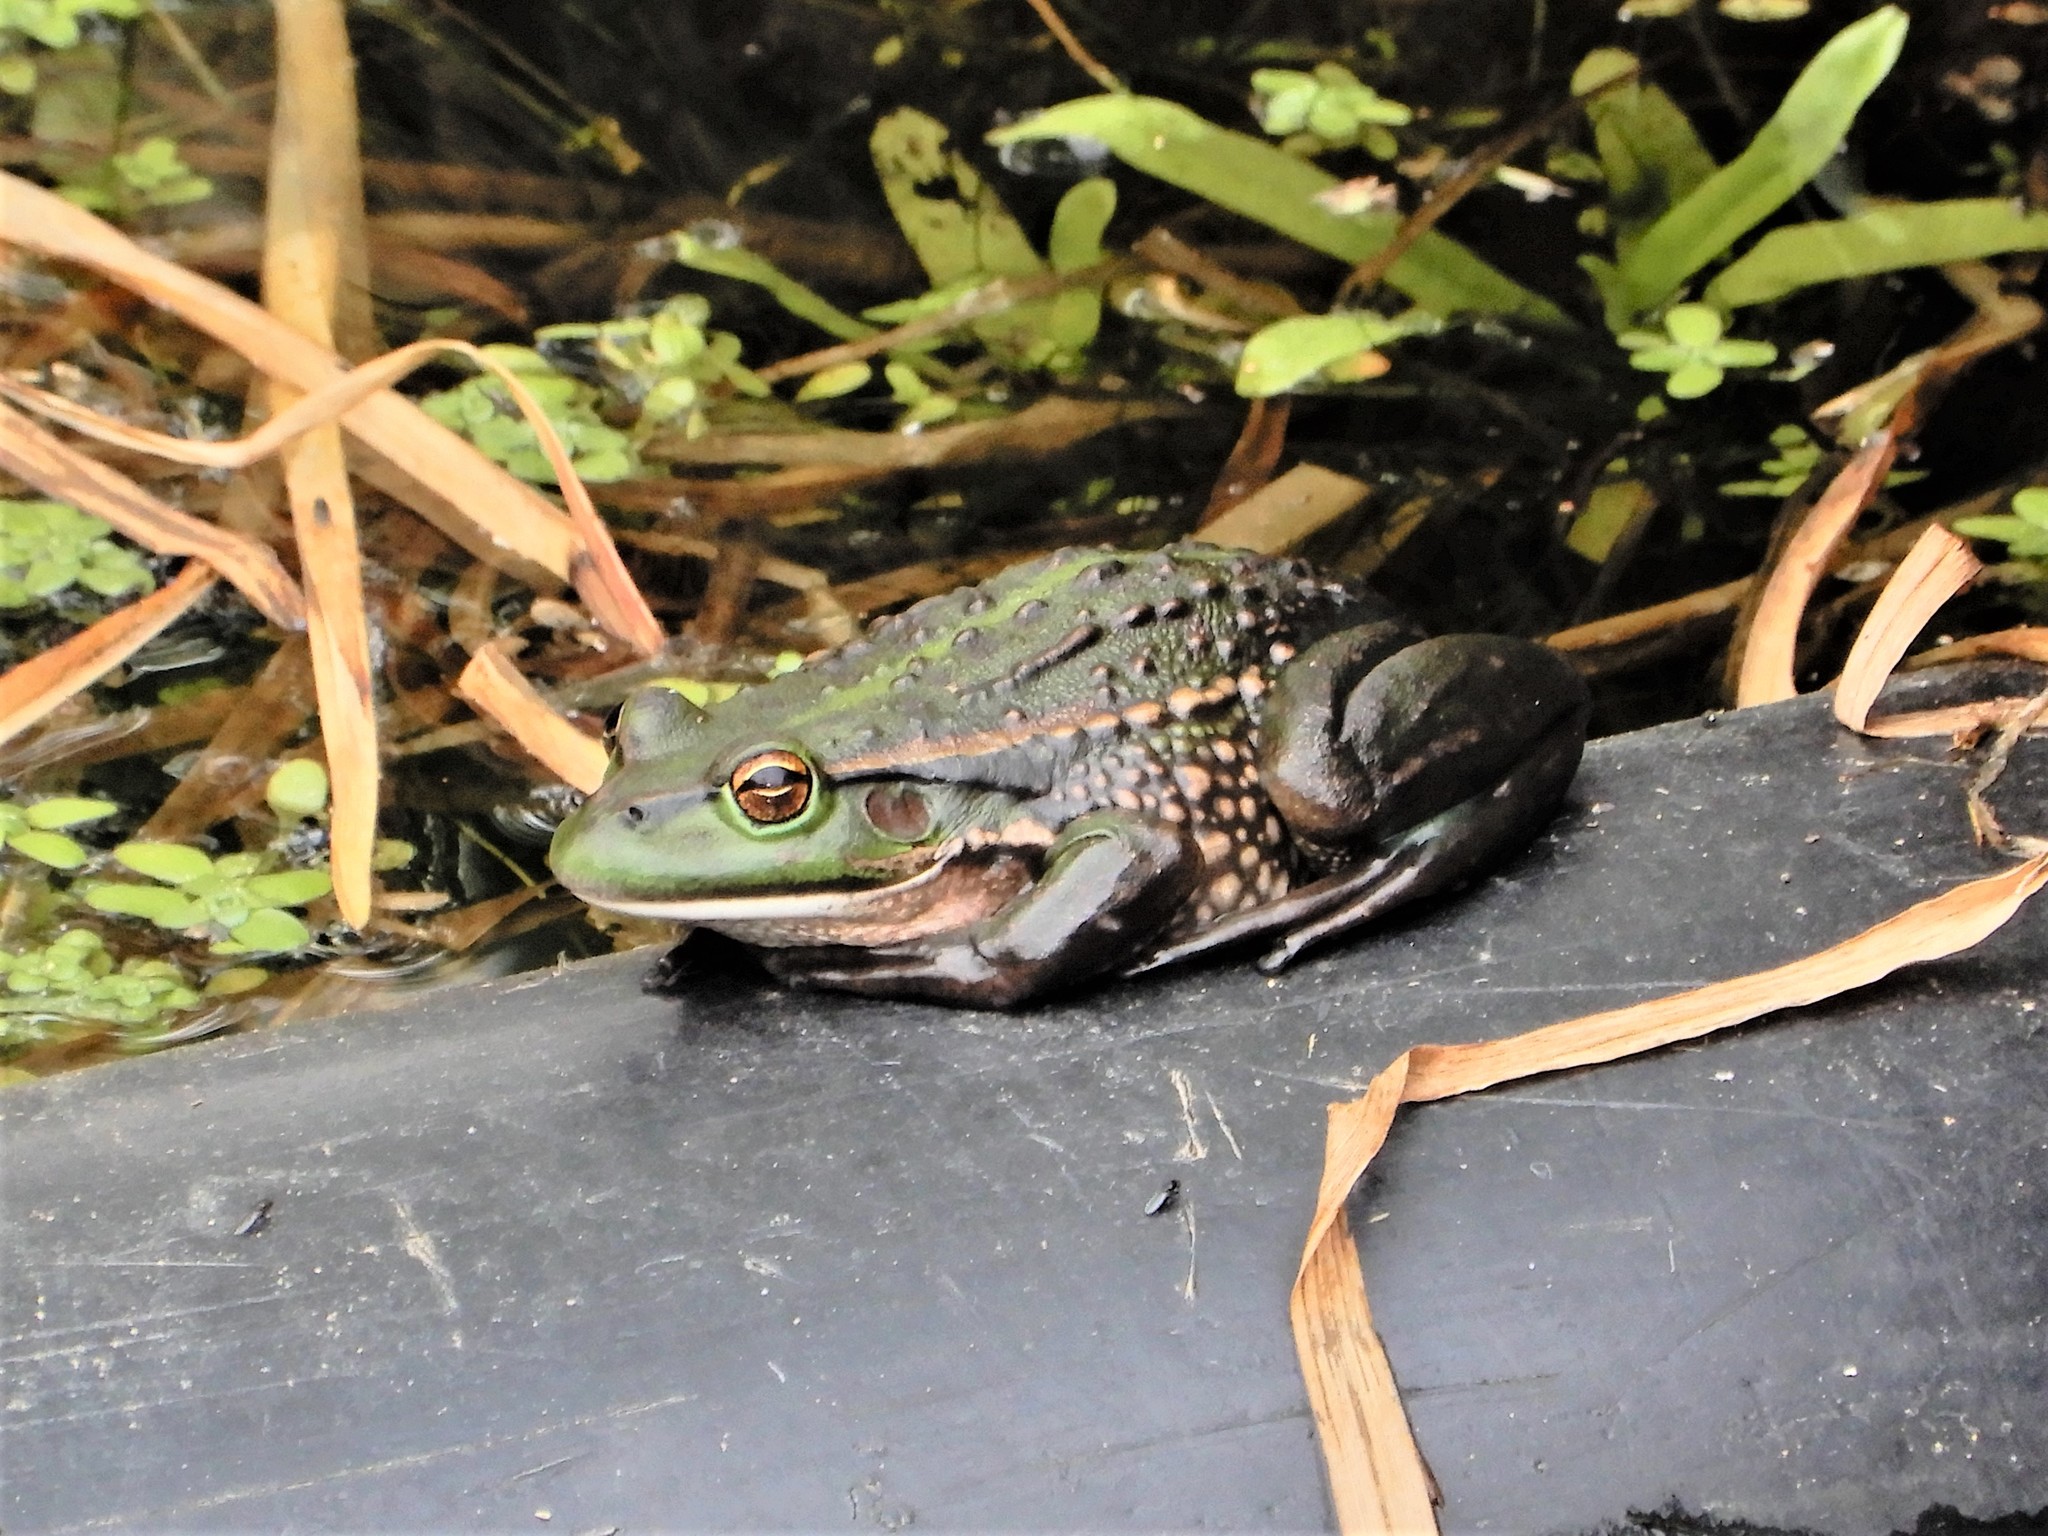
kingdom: Animalia
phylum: Chordata
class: Amphibia
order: Anura
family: Pelodryadidae
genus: Ranoidea
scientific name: Ranoidea raniformis
